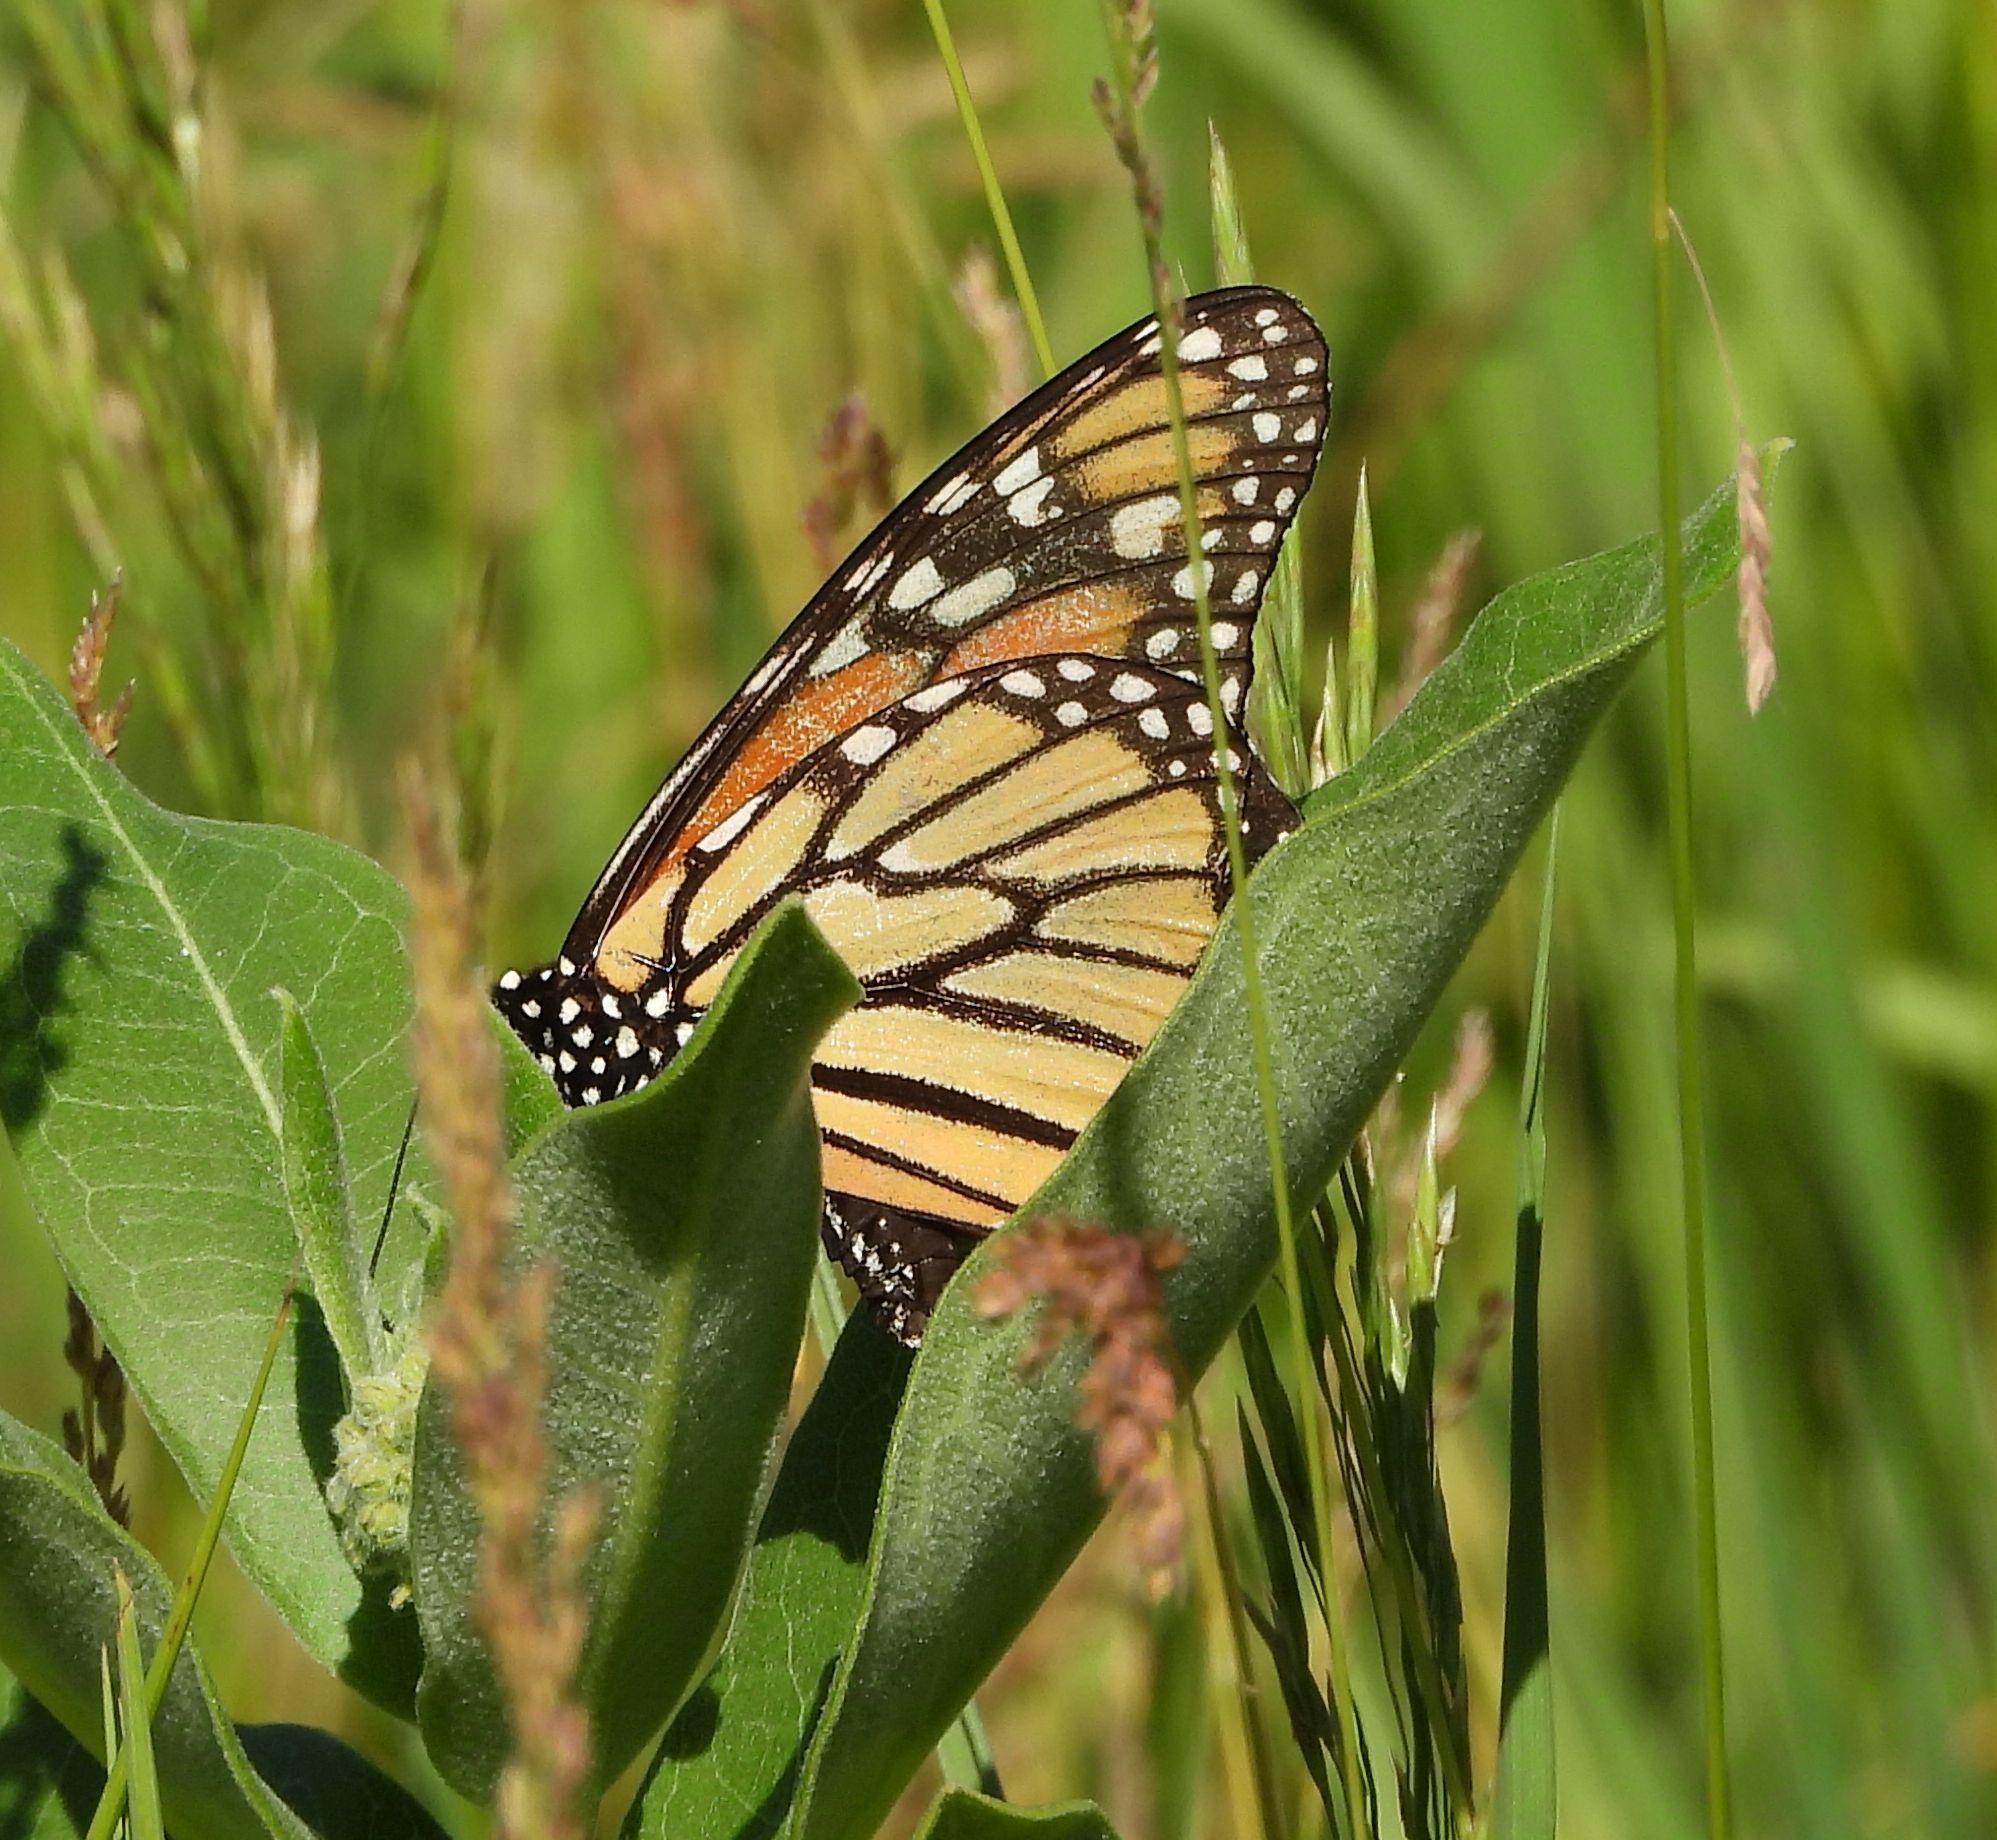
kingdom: Animalia
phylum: Arthropoda
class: Insecta
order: Lepidoptera
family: Nymphalidae
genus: Danaus
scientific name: Danaus plexippus
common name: Monarch
